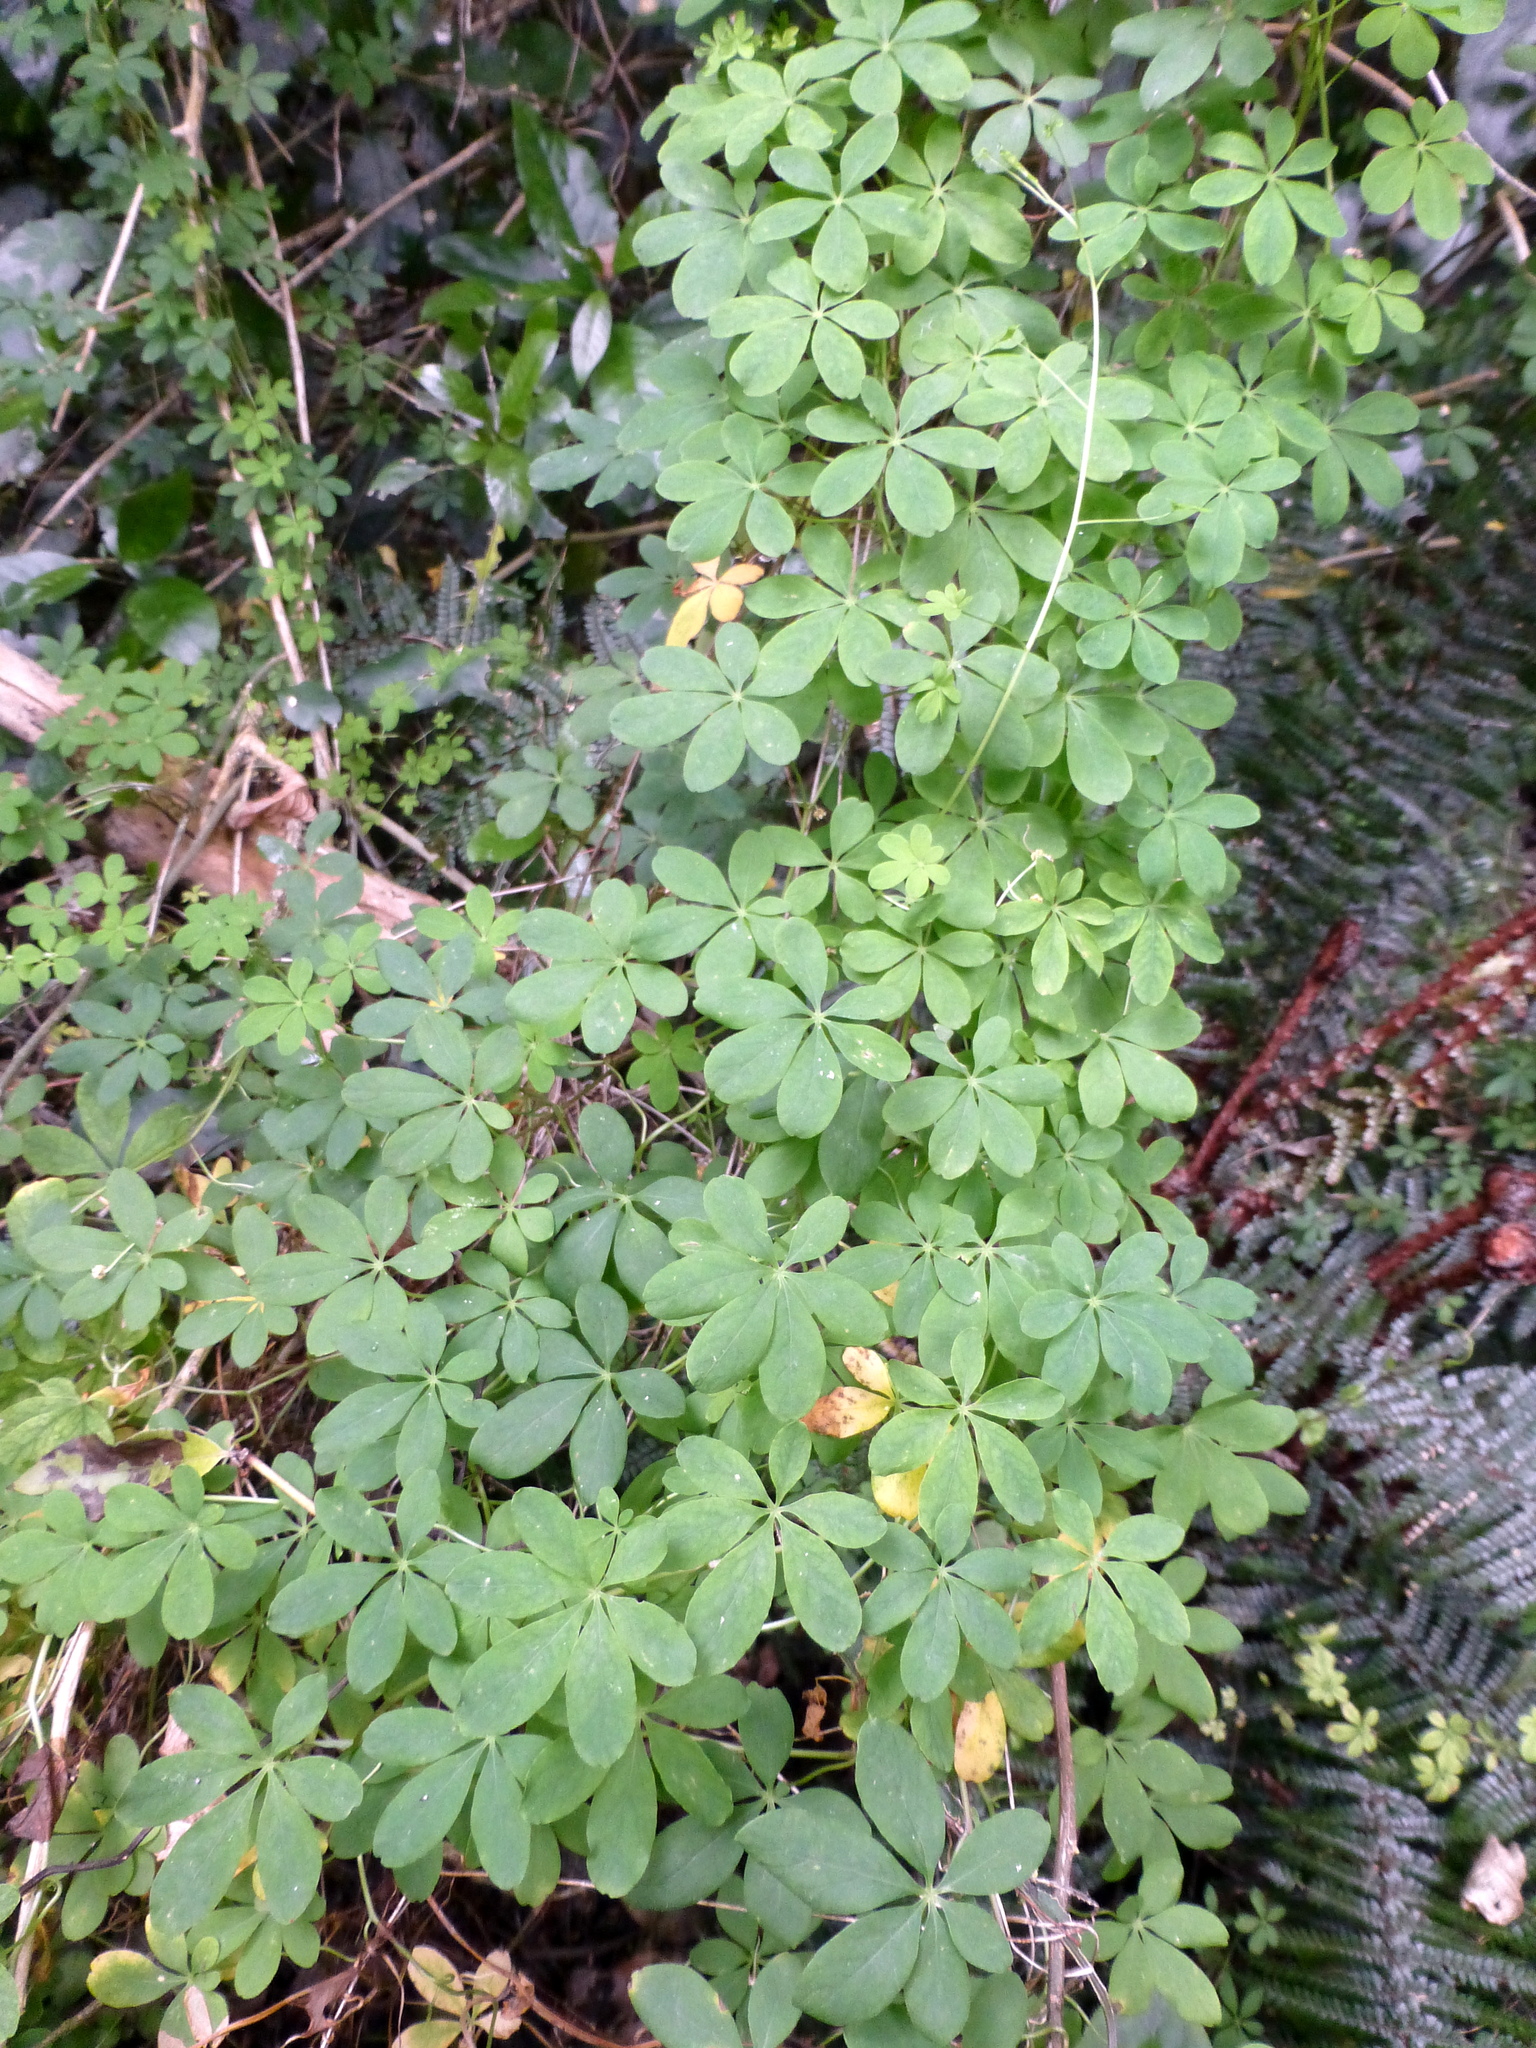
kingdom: Plantae
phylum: Tracheophyta
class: Magnoliopsida
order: Brassicales
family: Tropaeolaceae
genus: Tropaeolum
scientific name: Tropaeolum speciosum
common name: Flame nasturtium
